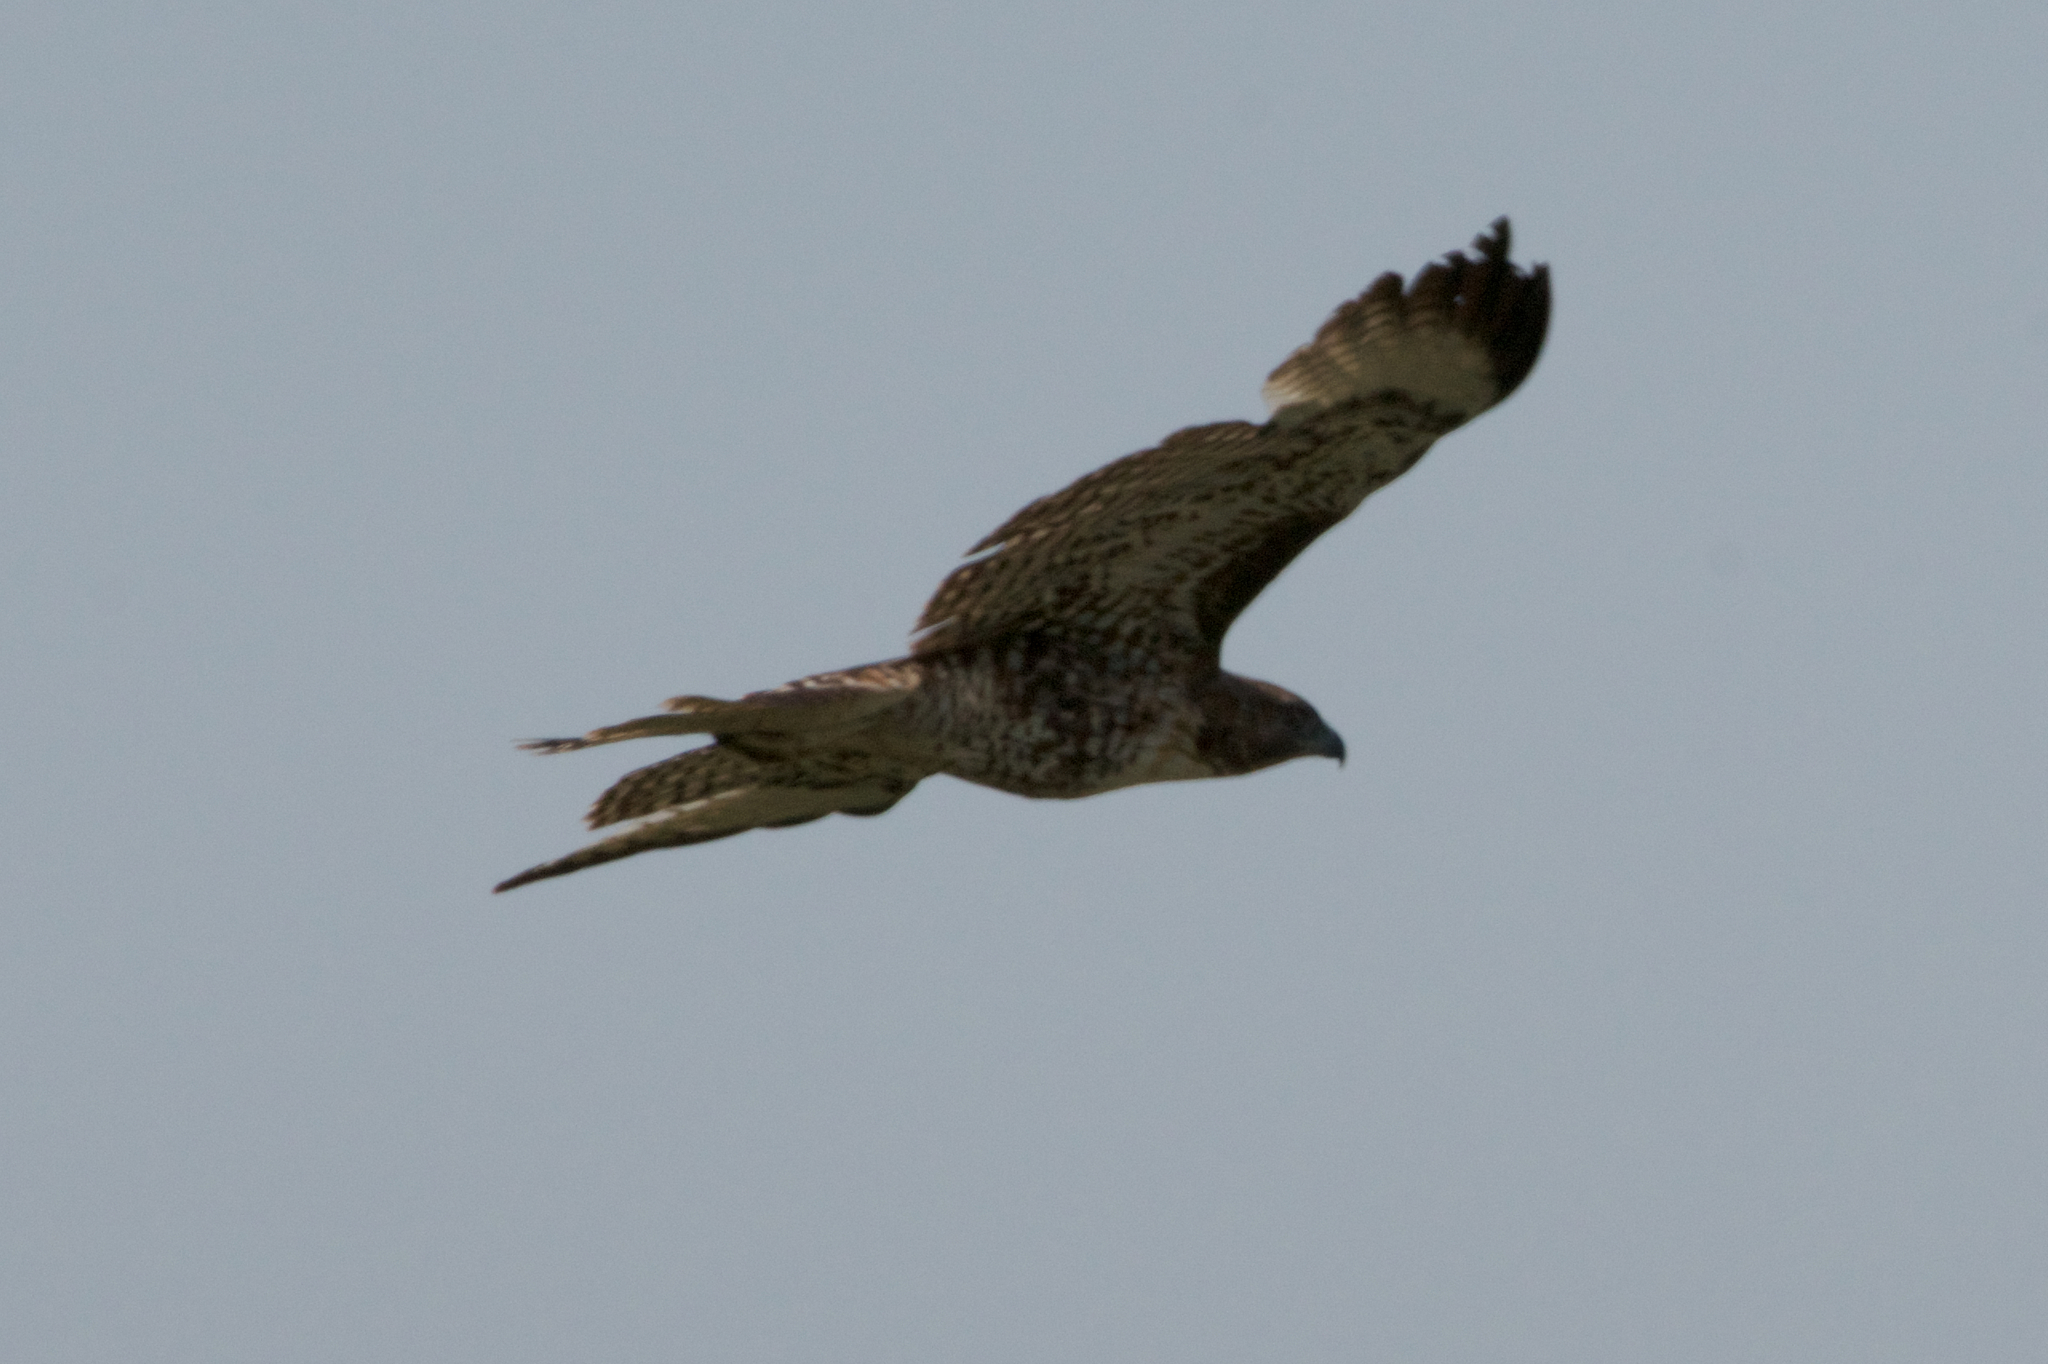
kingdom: Animalia
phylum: Chordata
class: Aves
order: Accipitriformes
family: Accipitridae
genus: Buteo
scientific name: Buteo jamaicensis
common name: Red-tailed hawk
